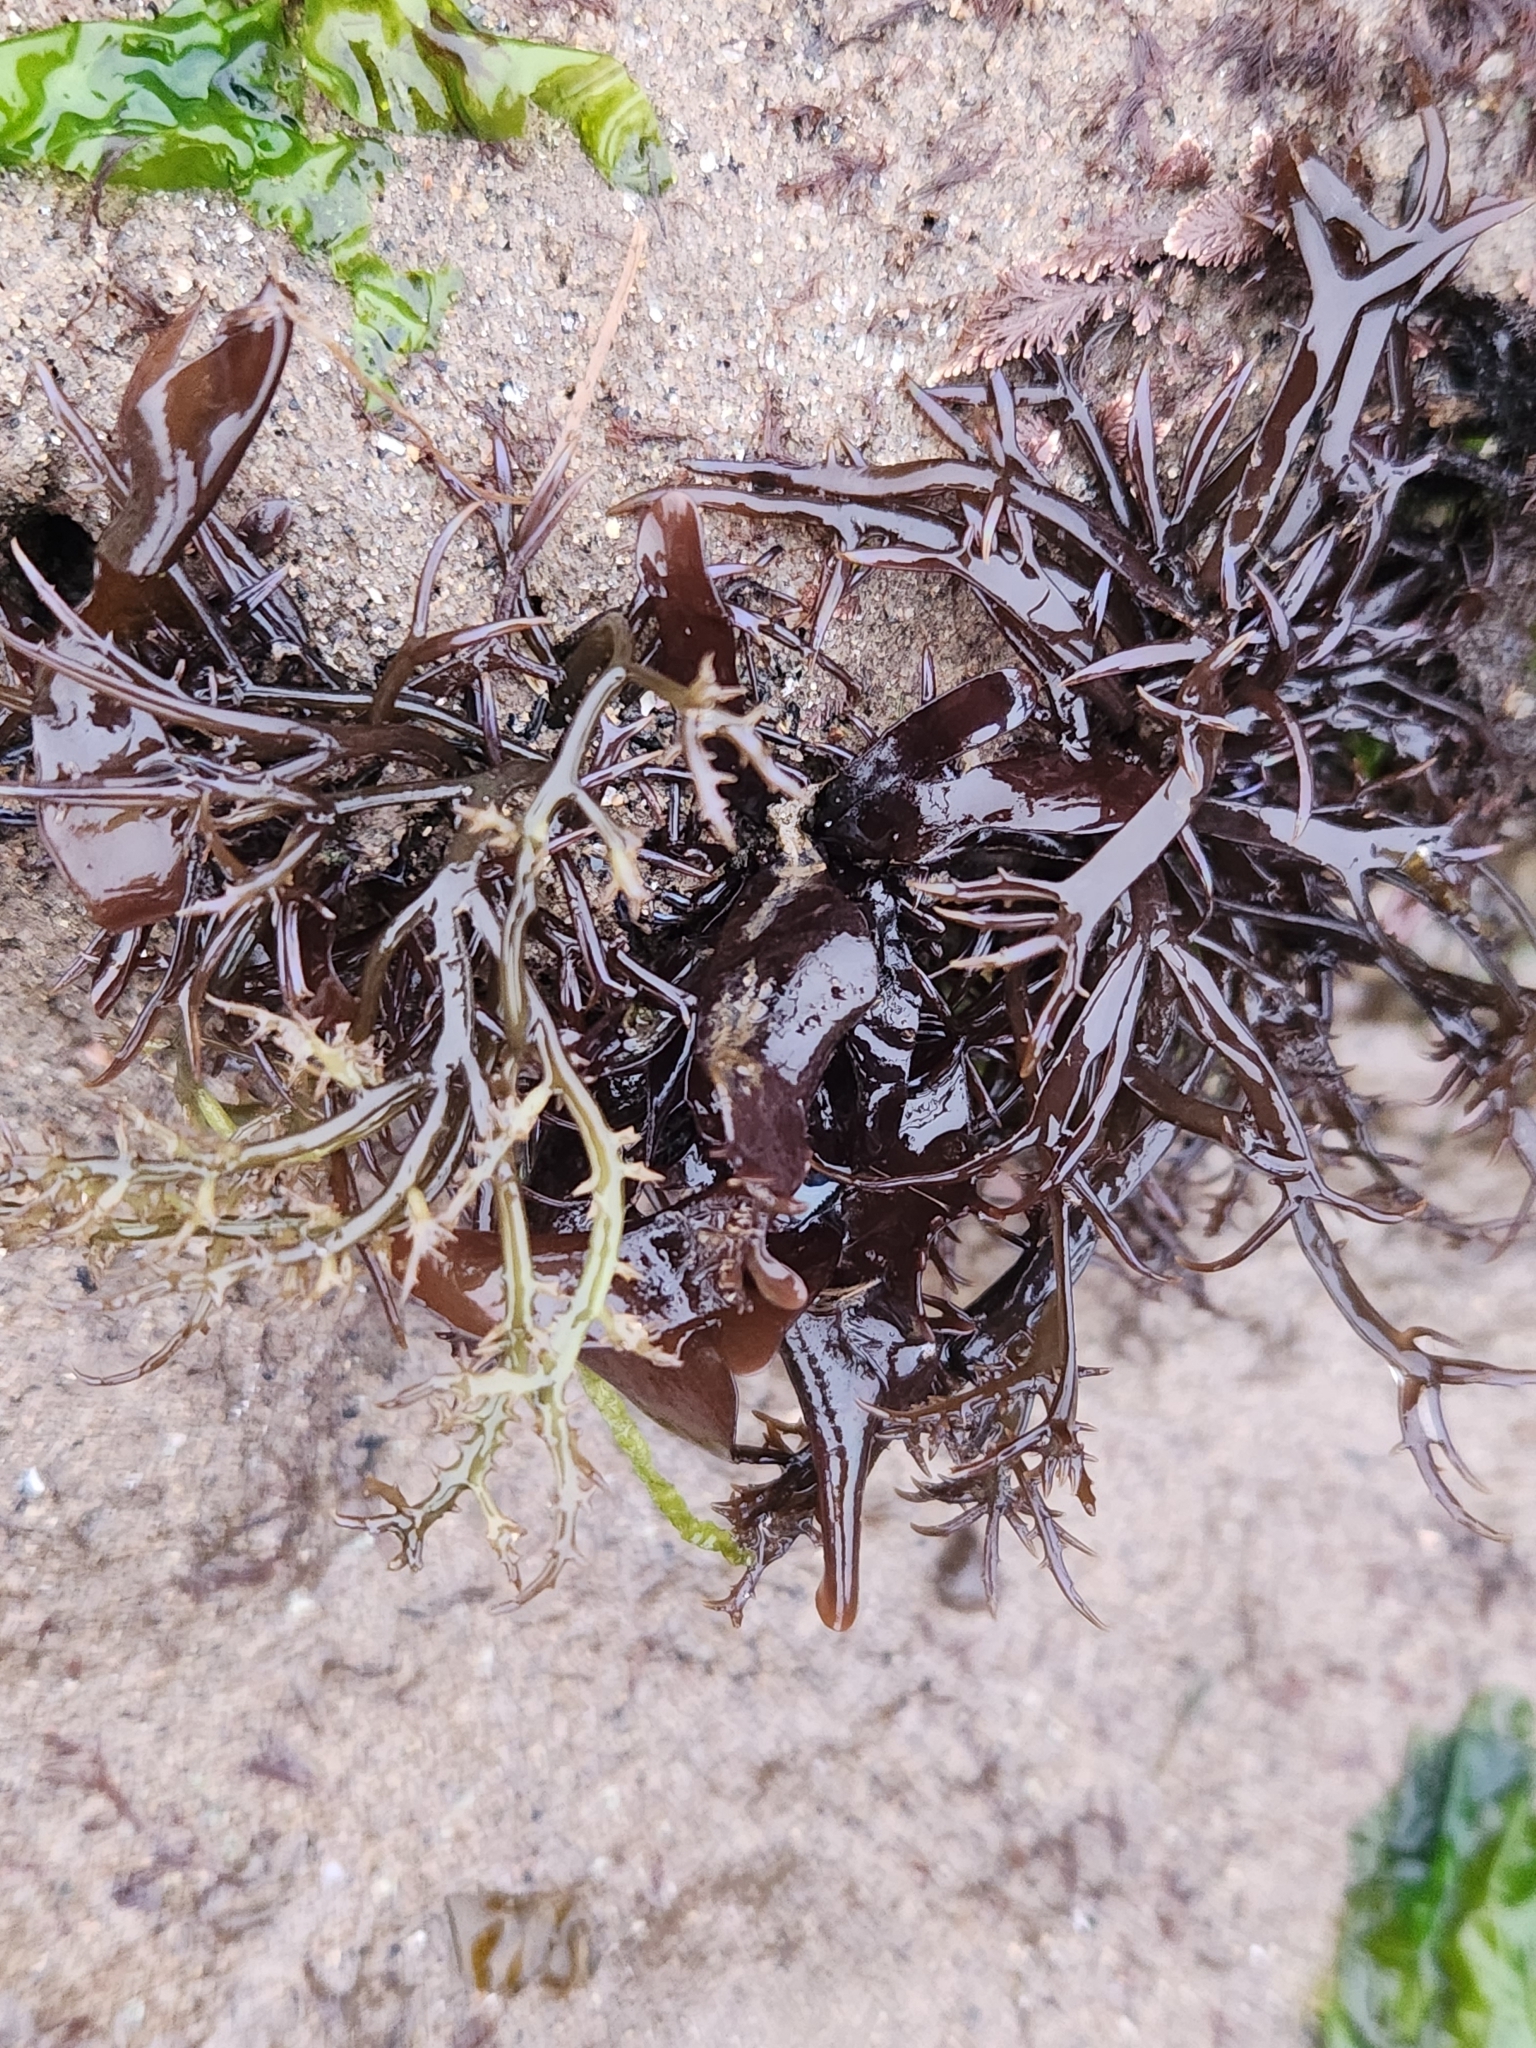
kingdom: Plantae
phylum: Rhodophyta
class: Florideophyceae
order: Gigartinales
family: Gigartinaceae
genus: Chondracanthus
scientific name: Chondracanthus canaliculatus
